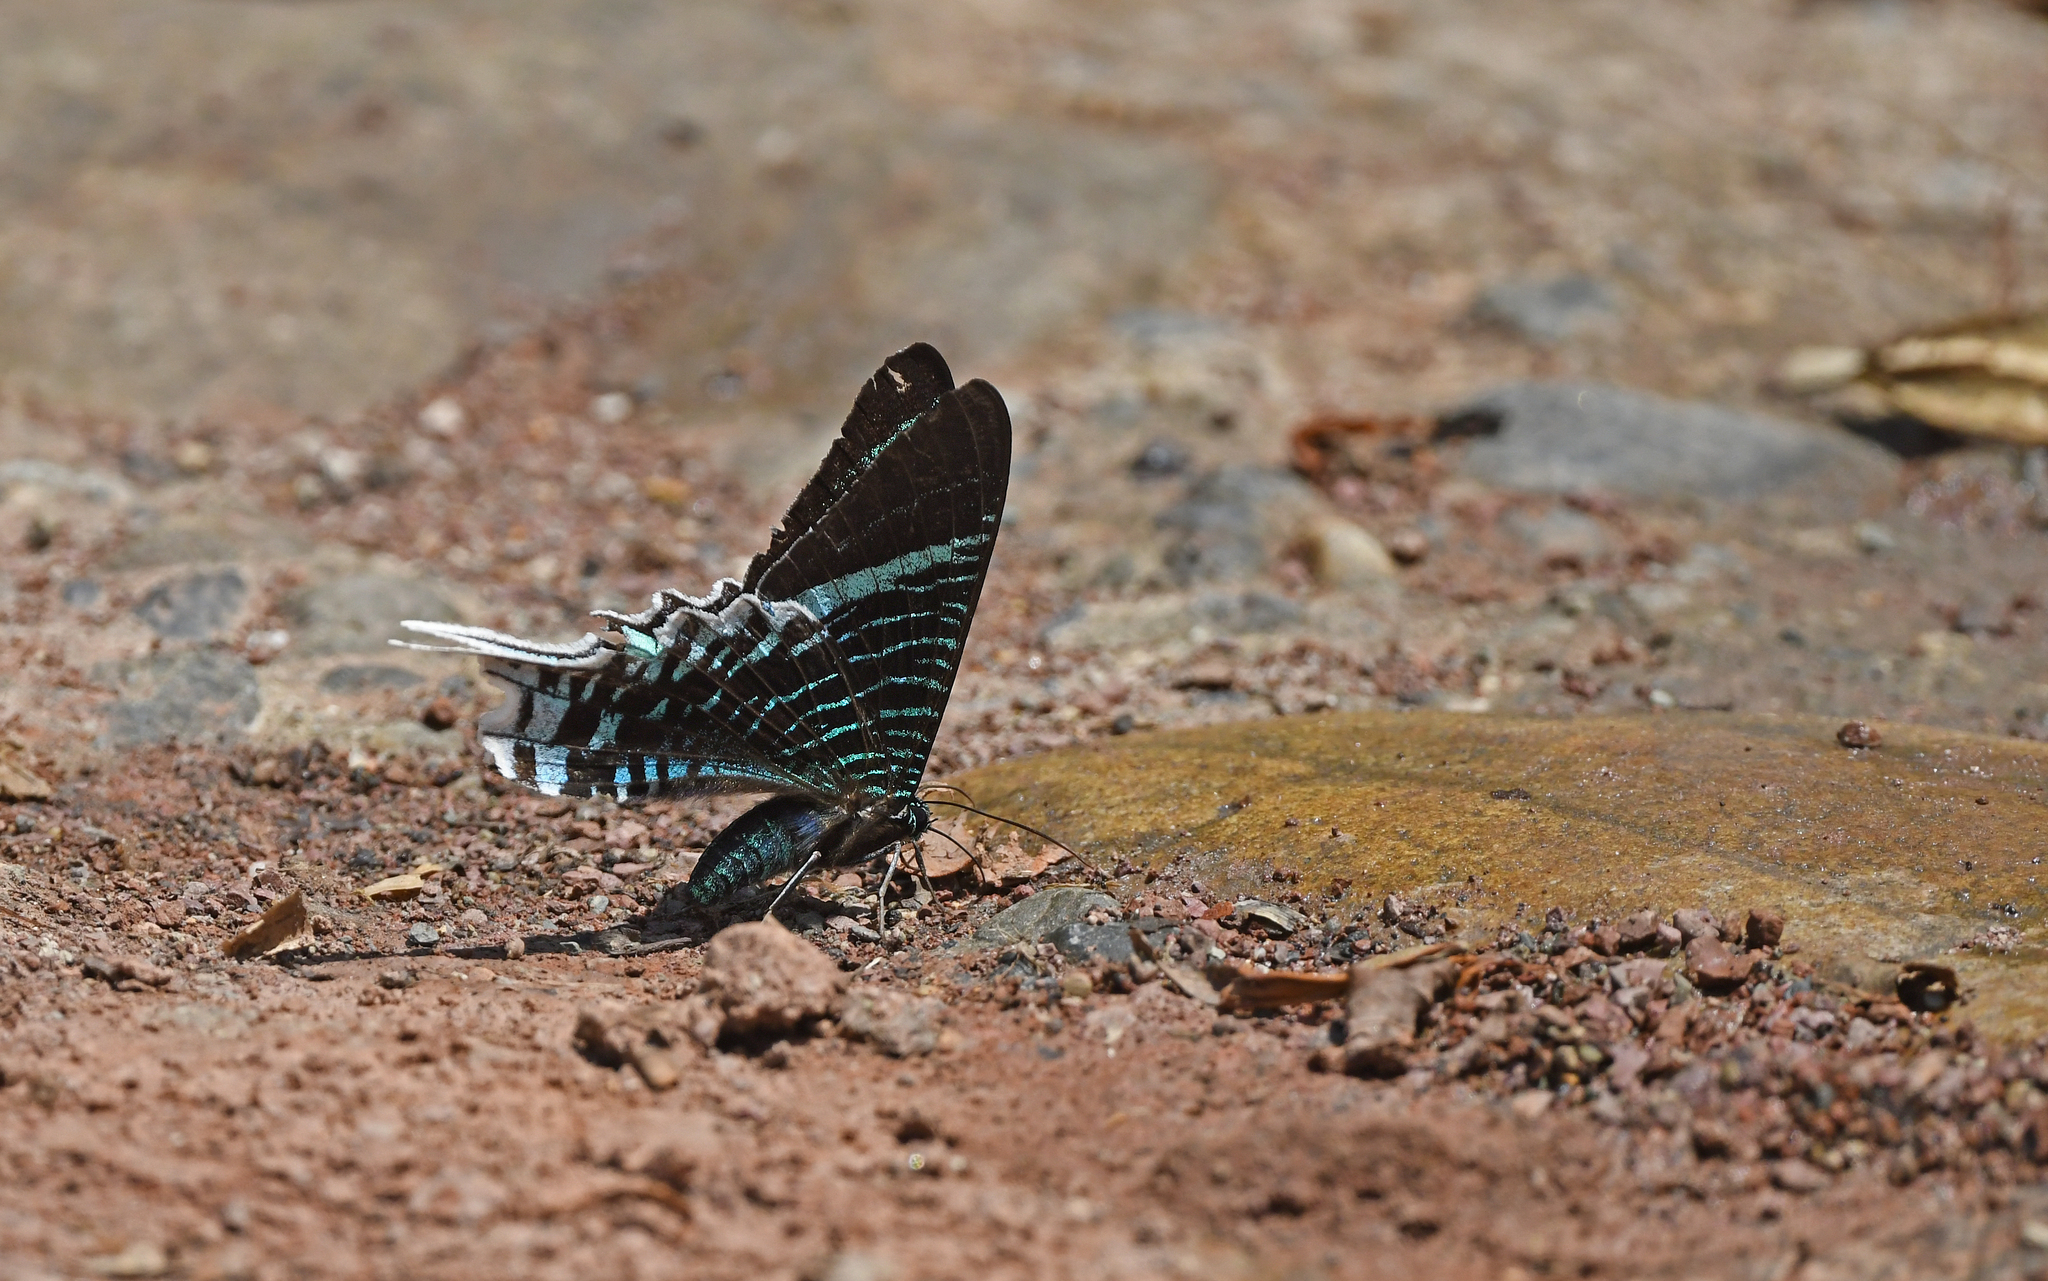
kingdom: Animalia
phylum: Arthropoda
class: Insecta
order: Lepidoptera
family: Uraniidae
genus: Urania
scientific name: Urania leilus
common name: Peacock moth
